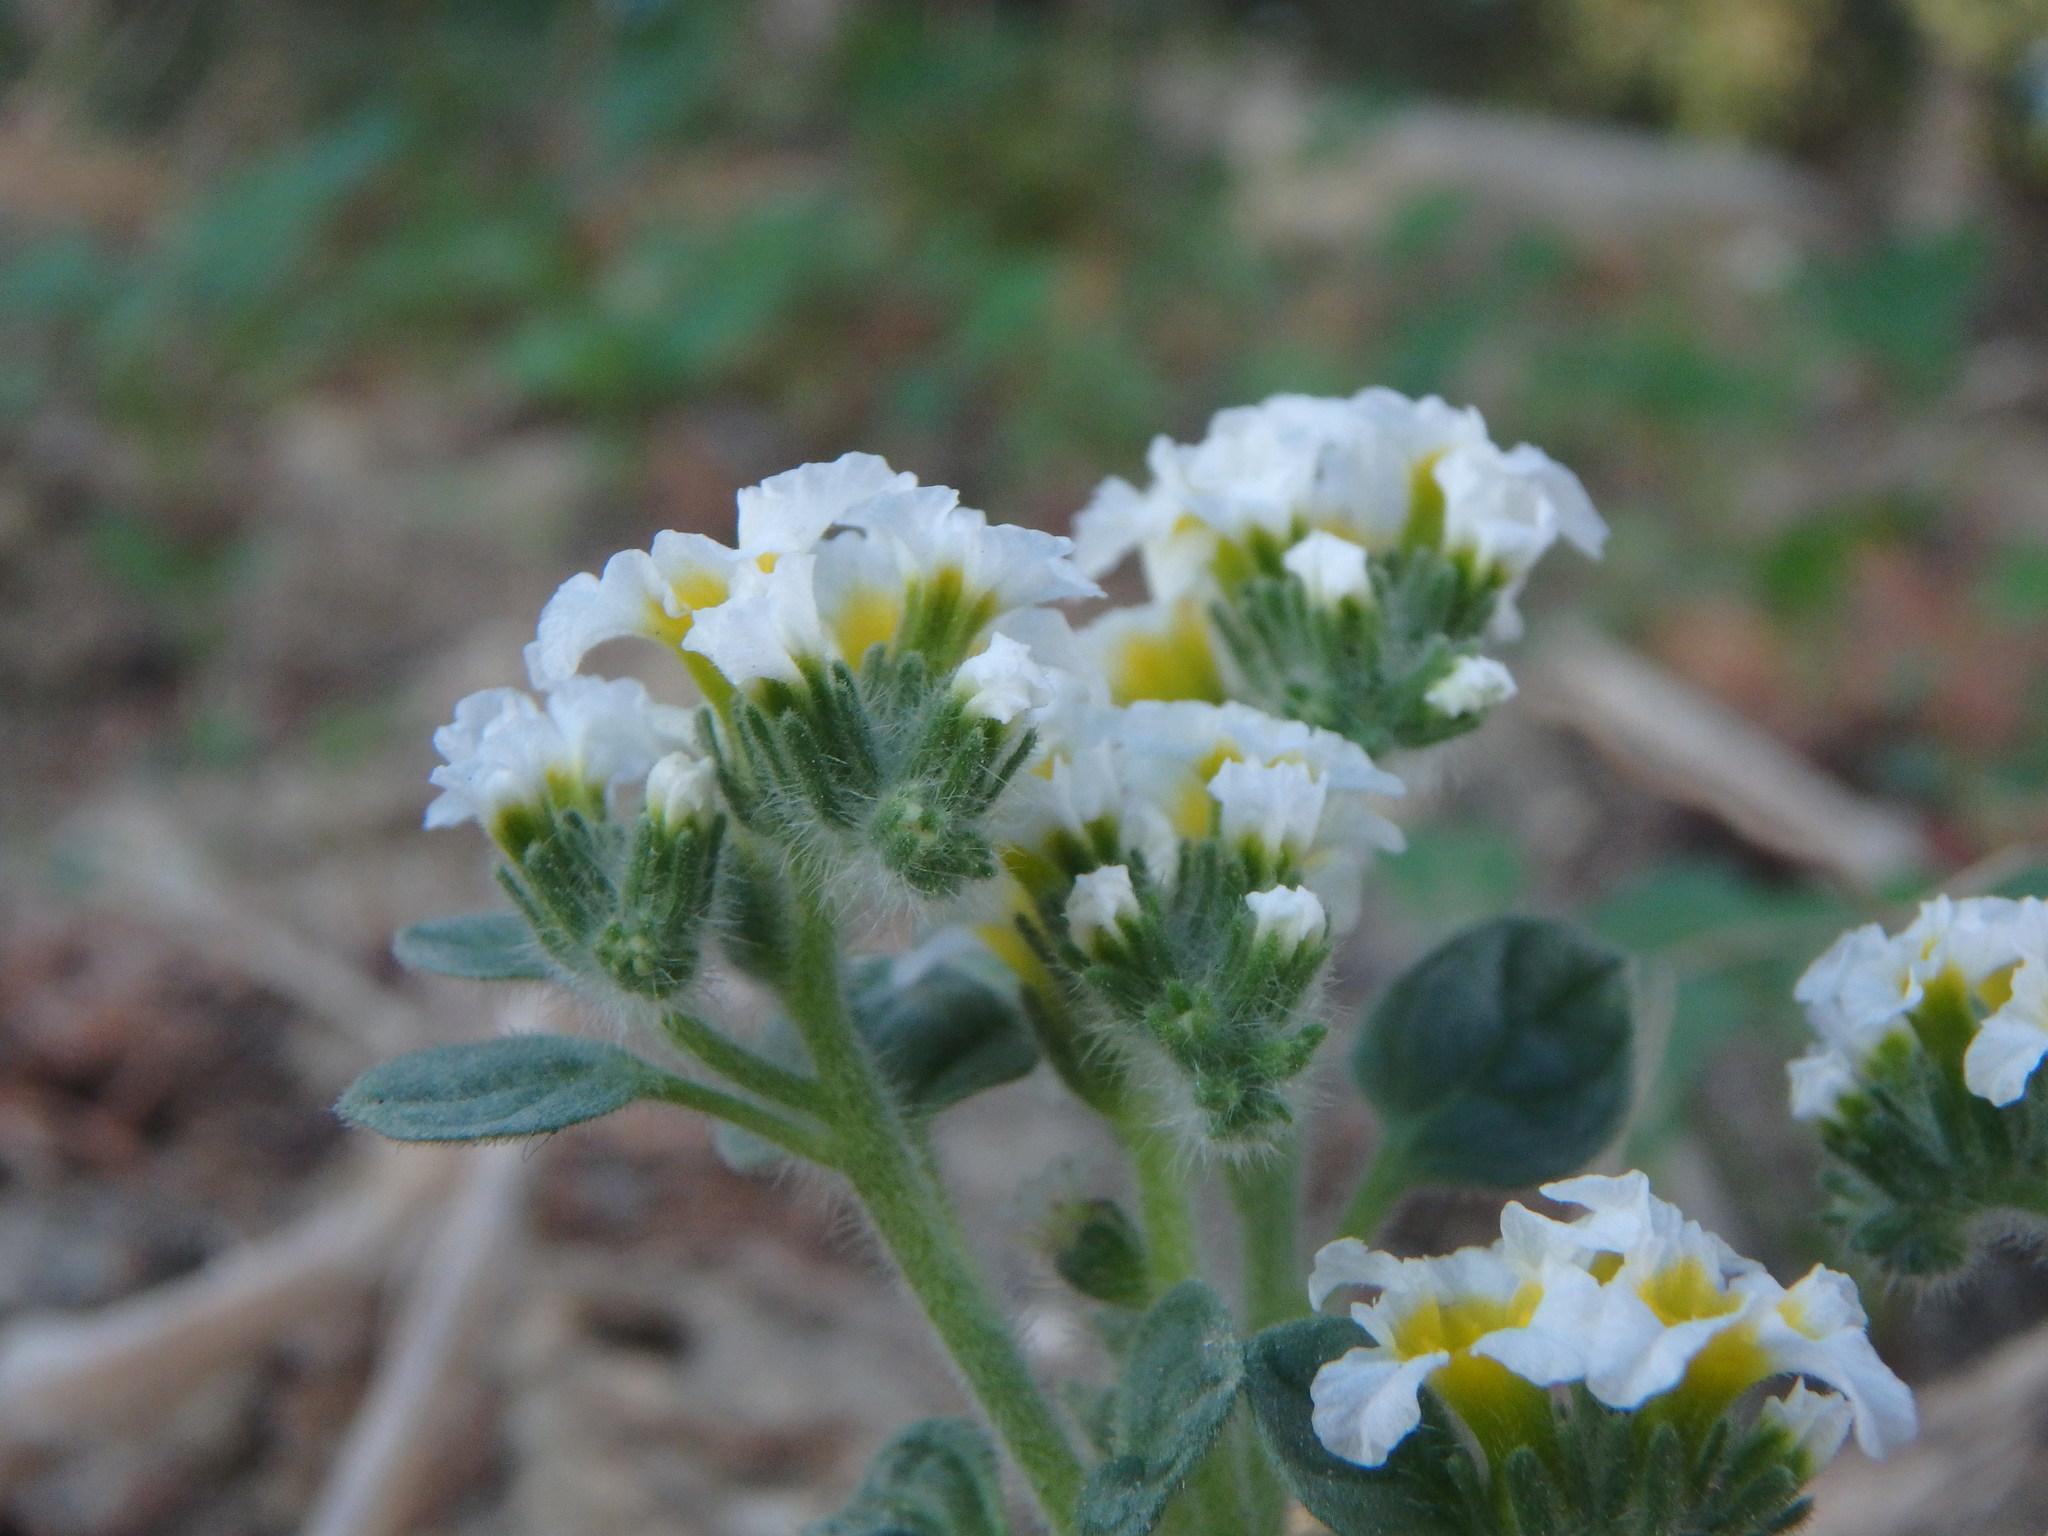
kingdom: Plantae
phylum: Tracheophyta
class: Magnoliopsida
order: Boraginales
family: Heliotropiaceae
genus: Heliotropium
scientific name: Heliotropium hirsutissimum
